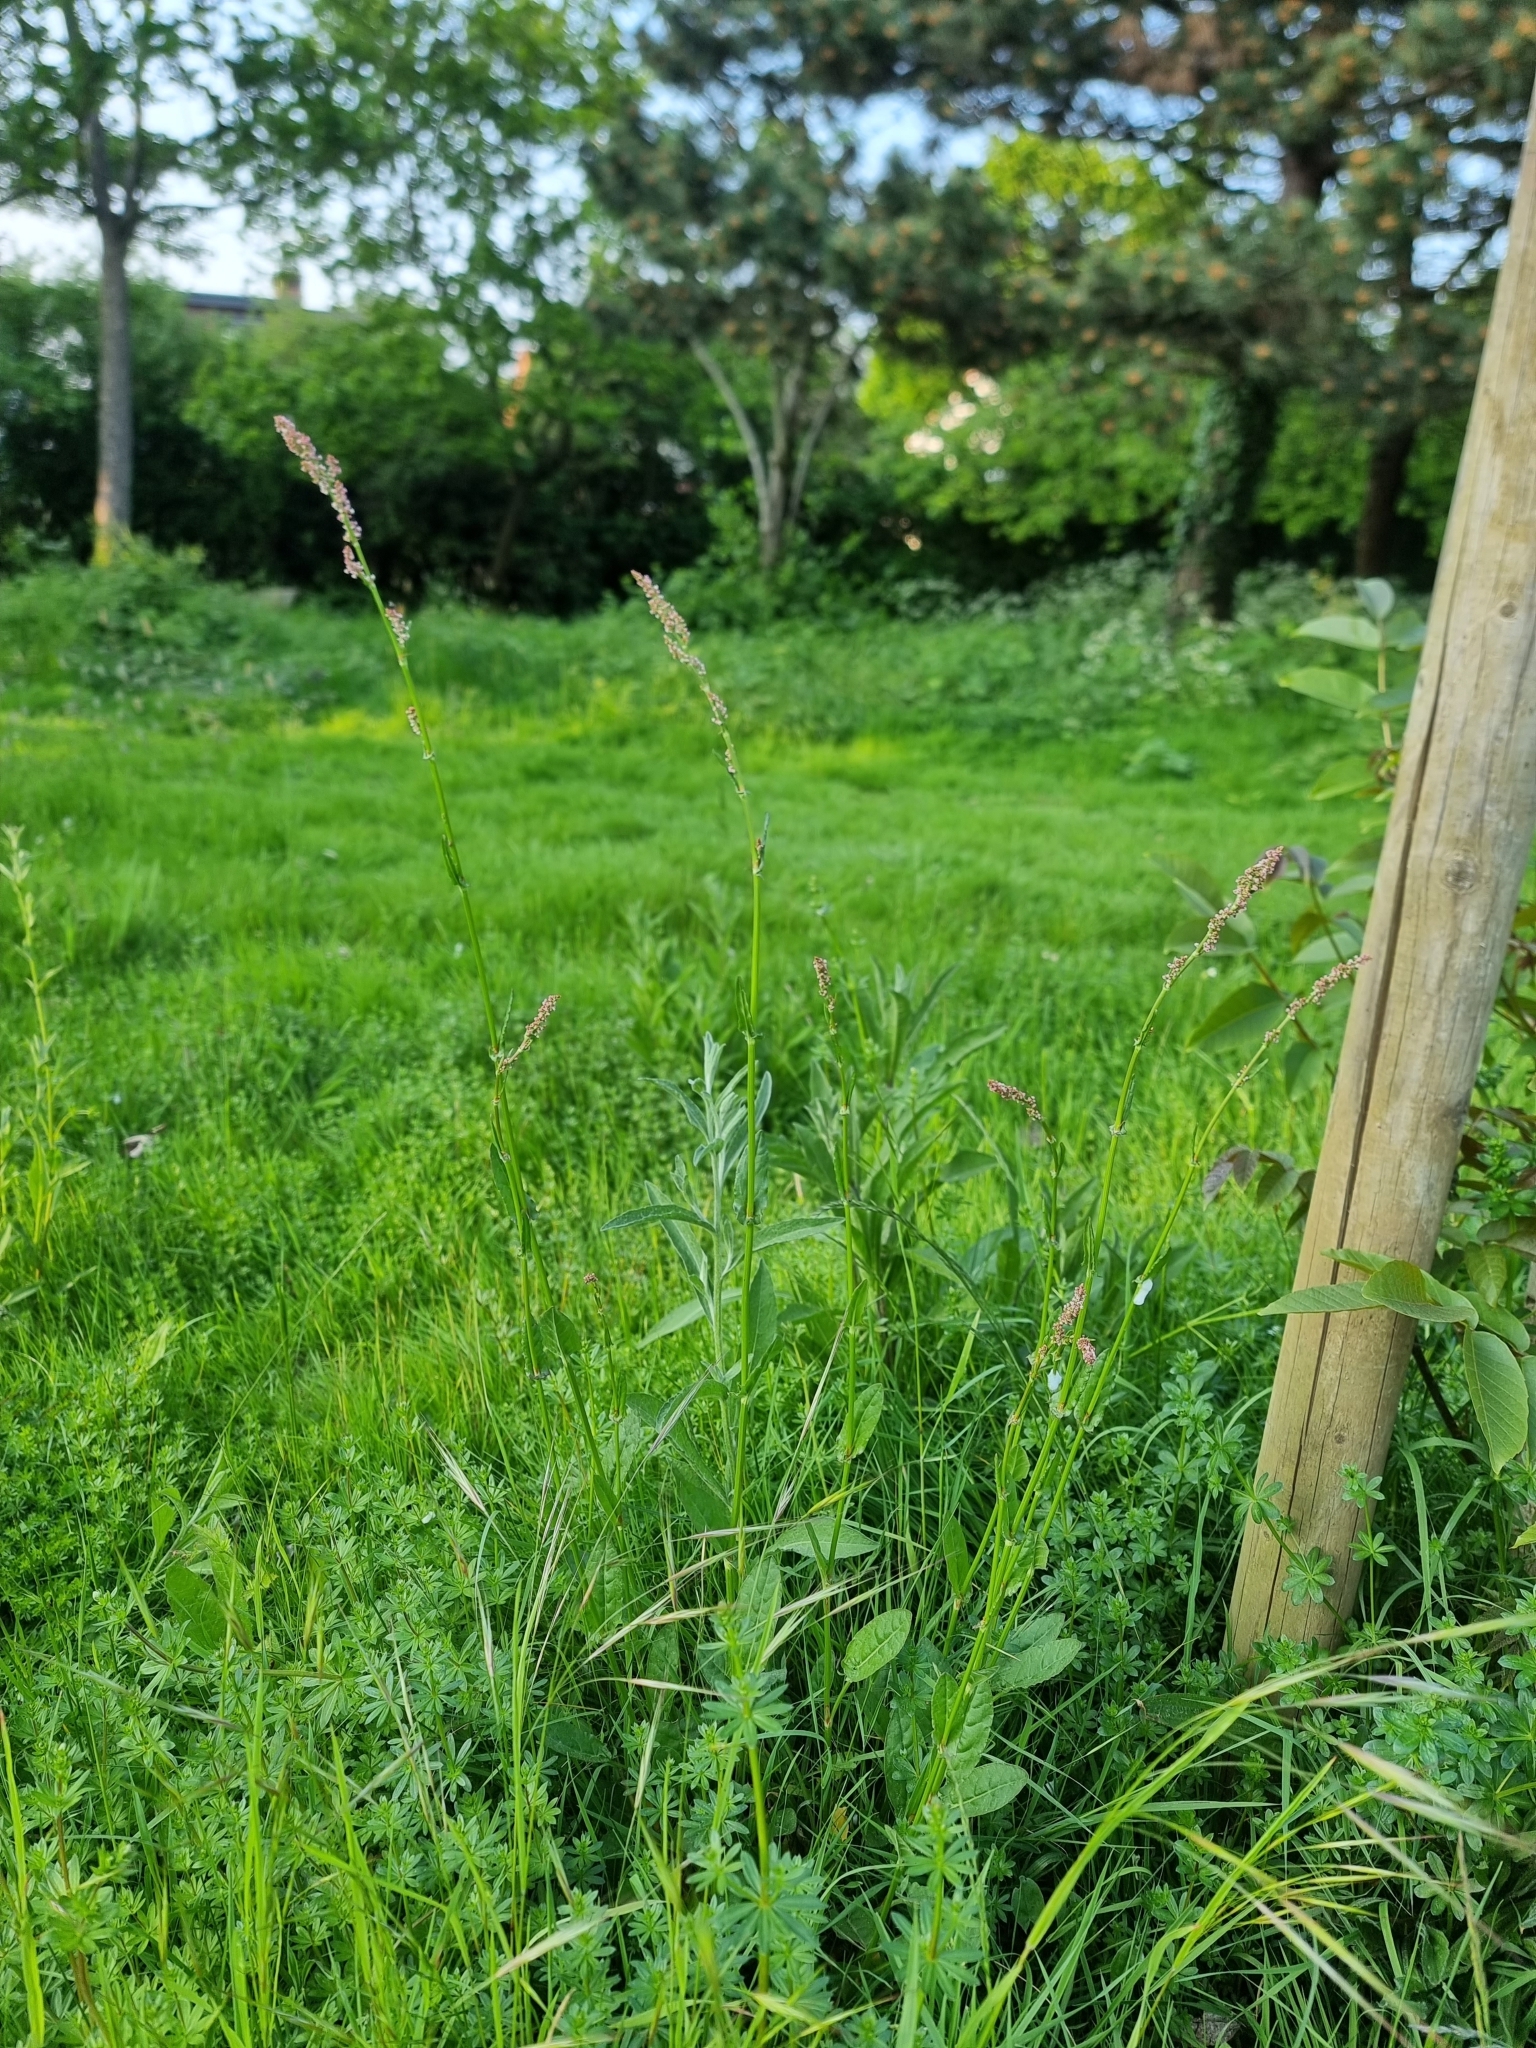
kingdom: Plantae
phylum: Tracheophyta
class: Magnoliopsida
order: Caryophyllales
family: Polygonaceae
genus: Rumex
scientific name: Rumex acetosa
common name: Garden sorrel
